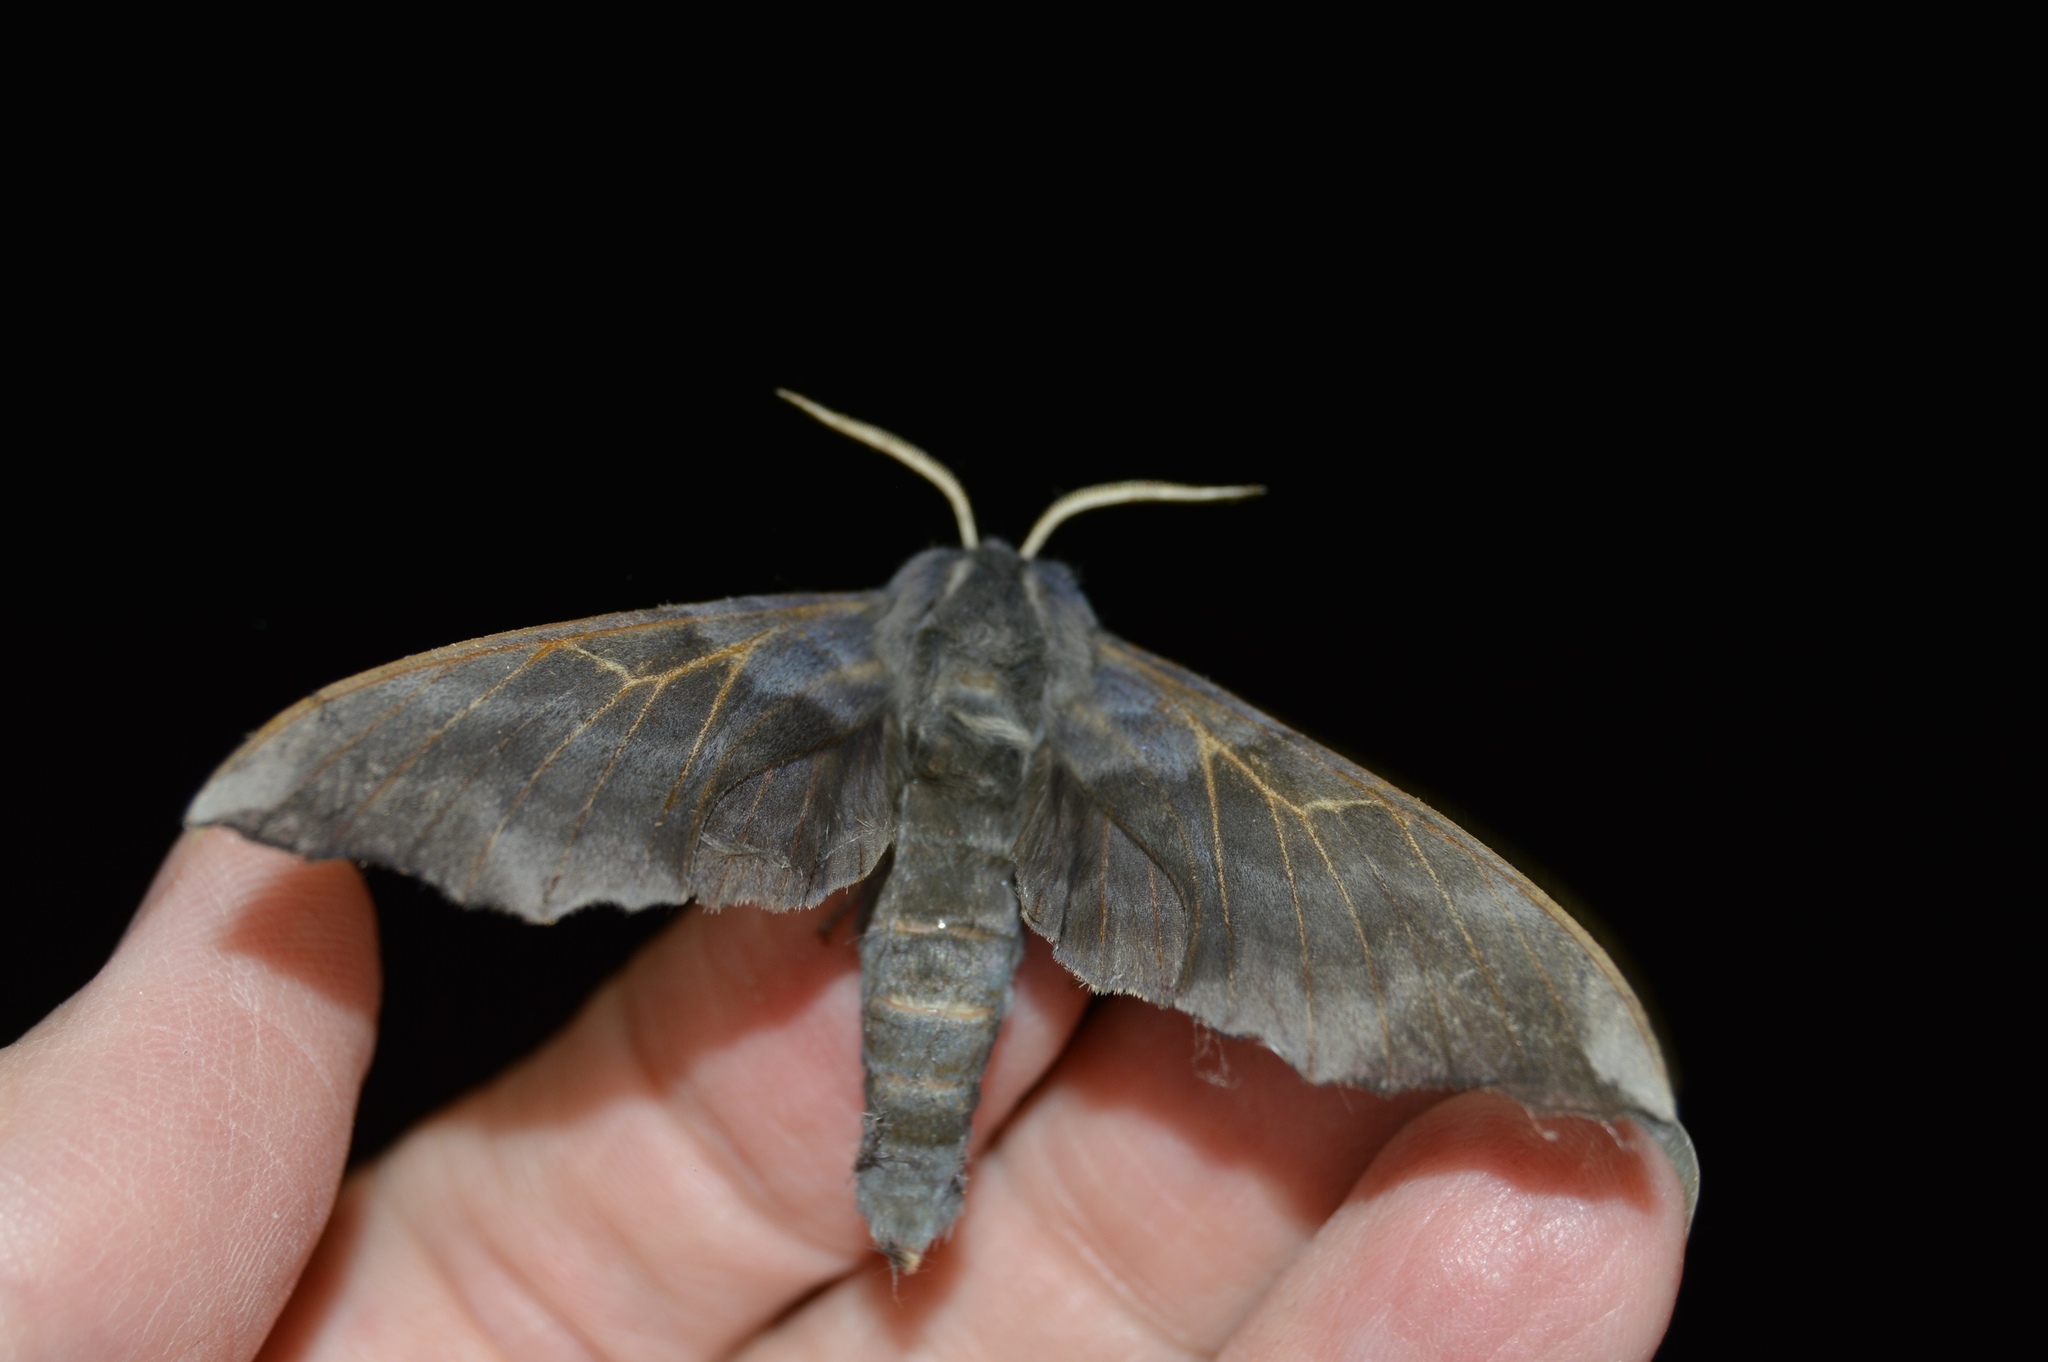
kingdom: Animalia
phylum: Arthropoda
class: Insecta
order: Lepidoptera
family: Sphingidae
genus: Laothoe
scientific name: Laothoe amurensis
